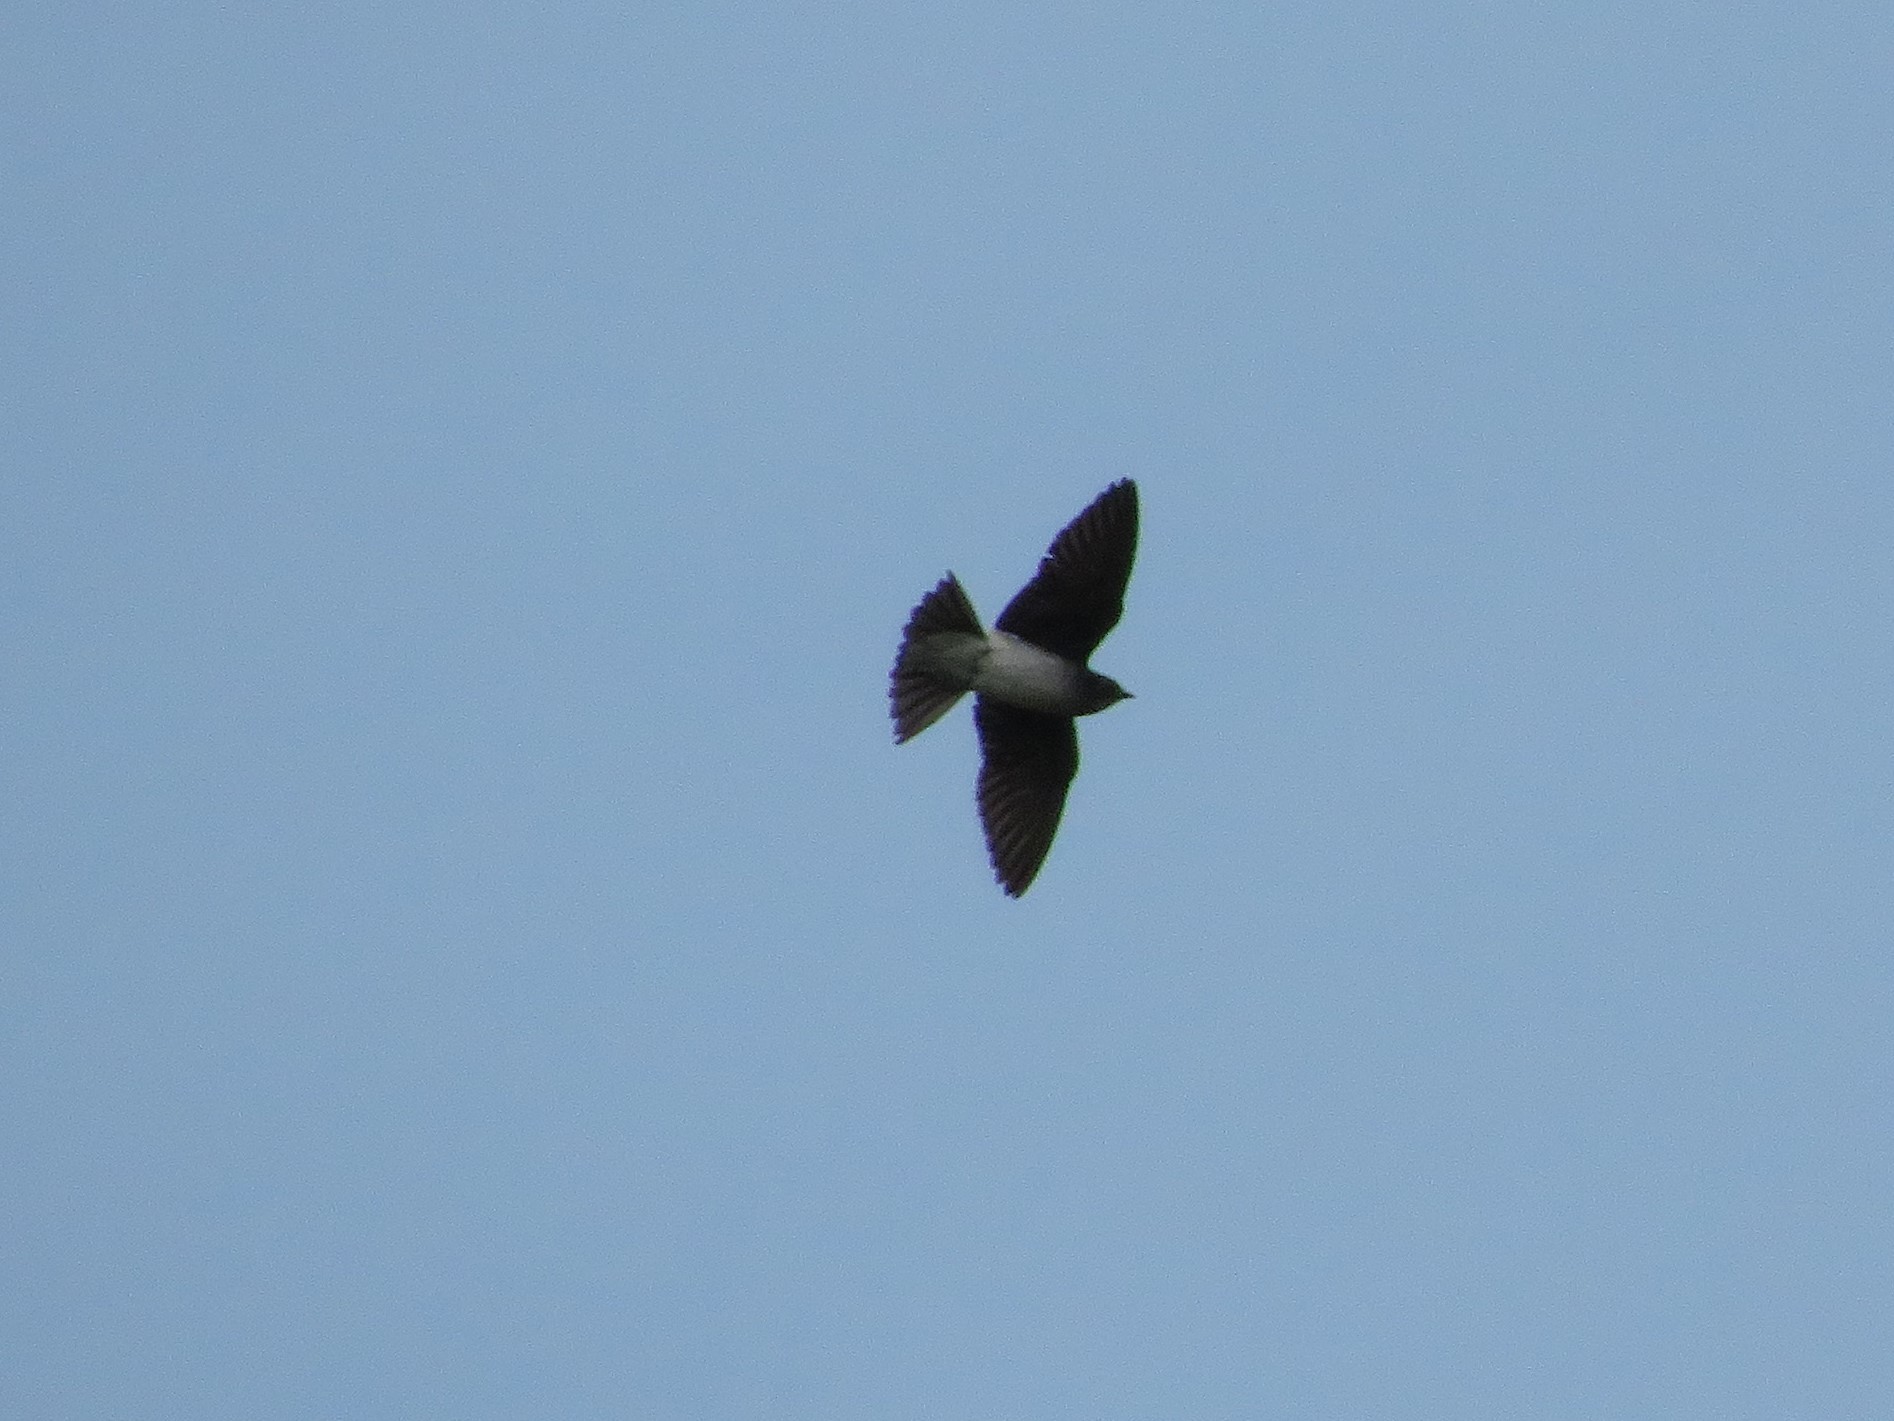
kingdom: Animalia
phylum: Chordata
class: Aves
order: Passeriformes
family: Hirundinidae
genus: Progne
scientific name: Progne chalybea
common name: Grey-breasted martin
